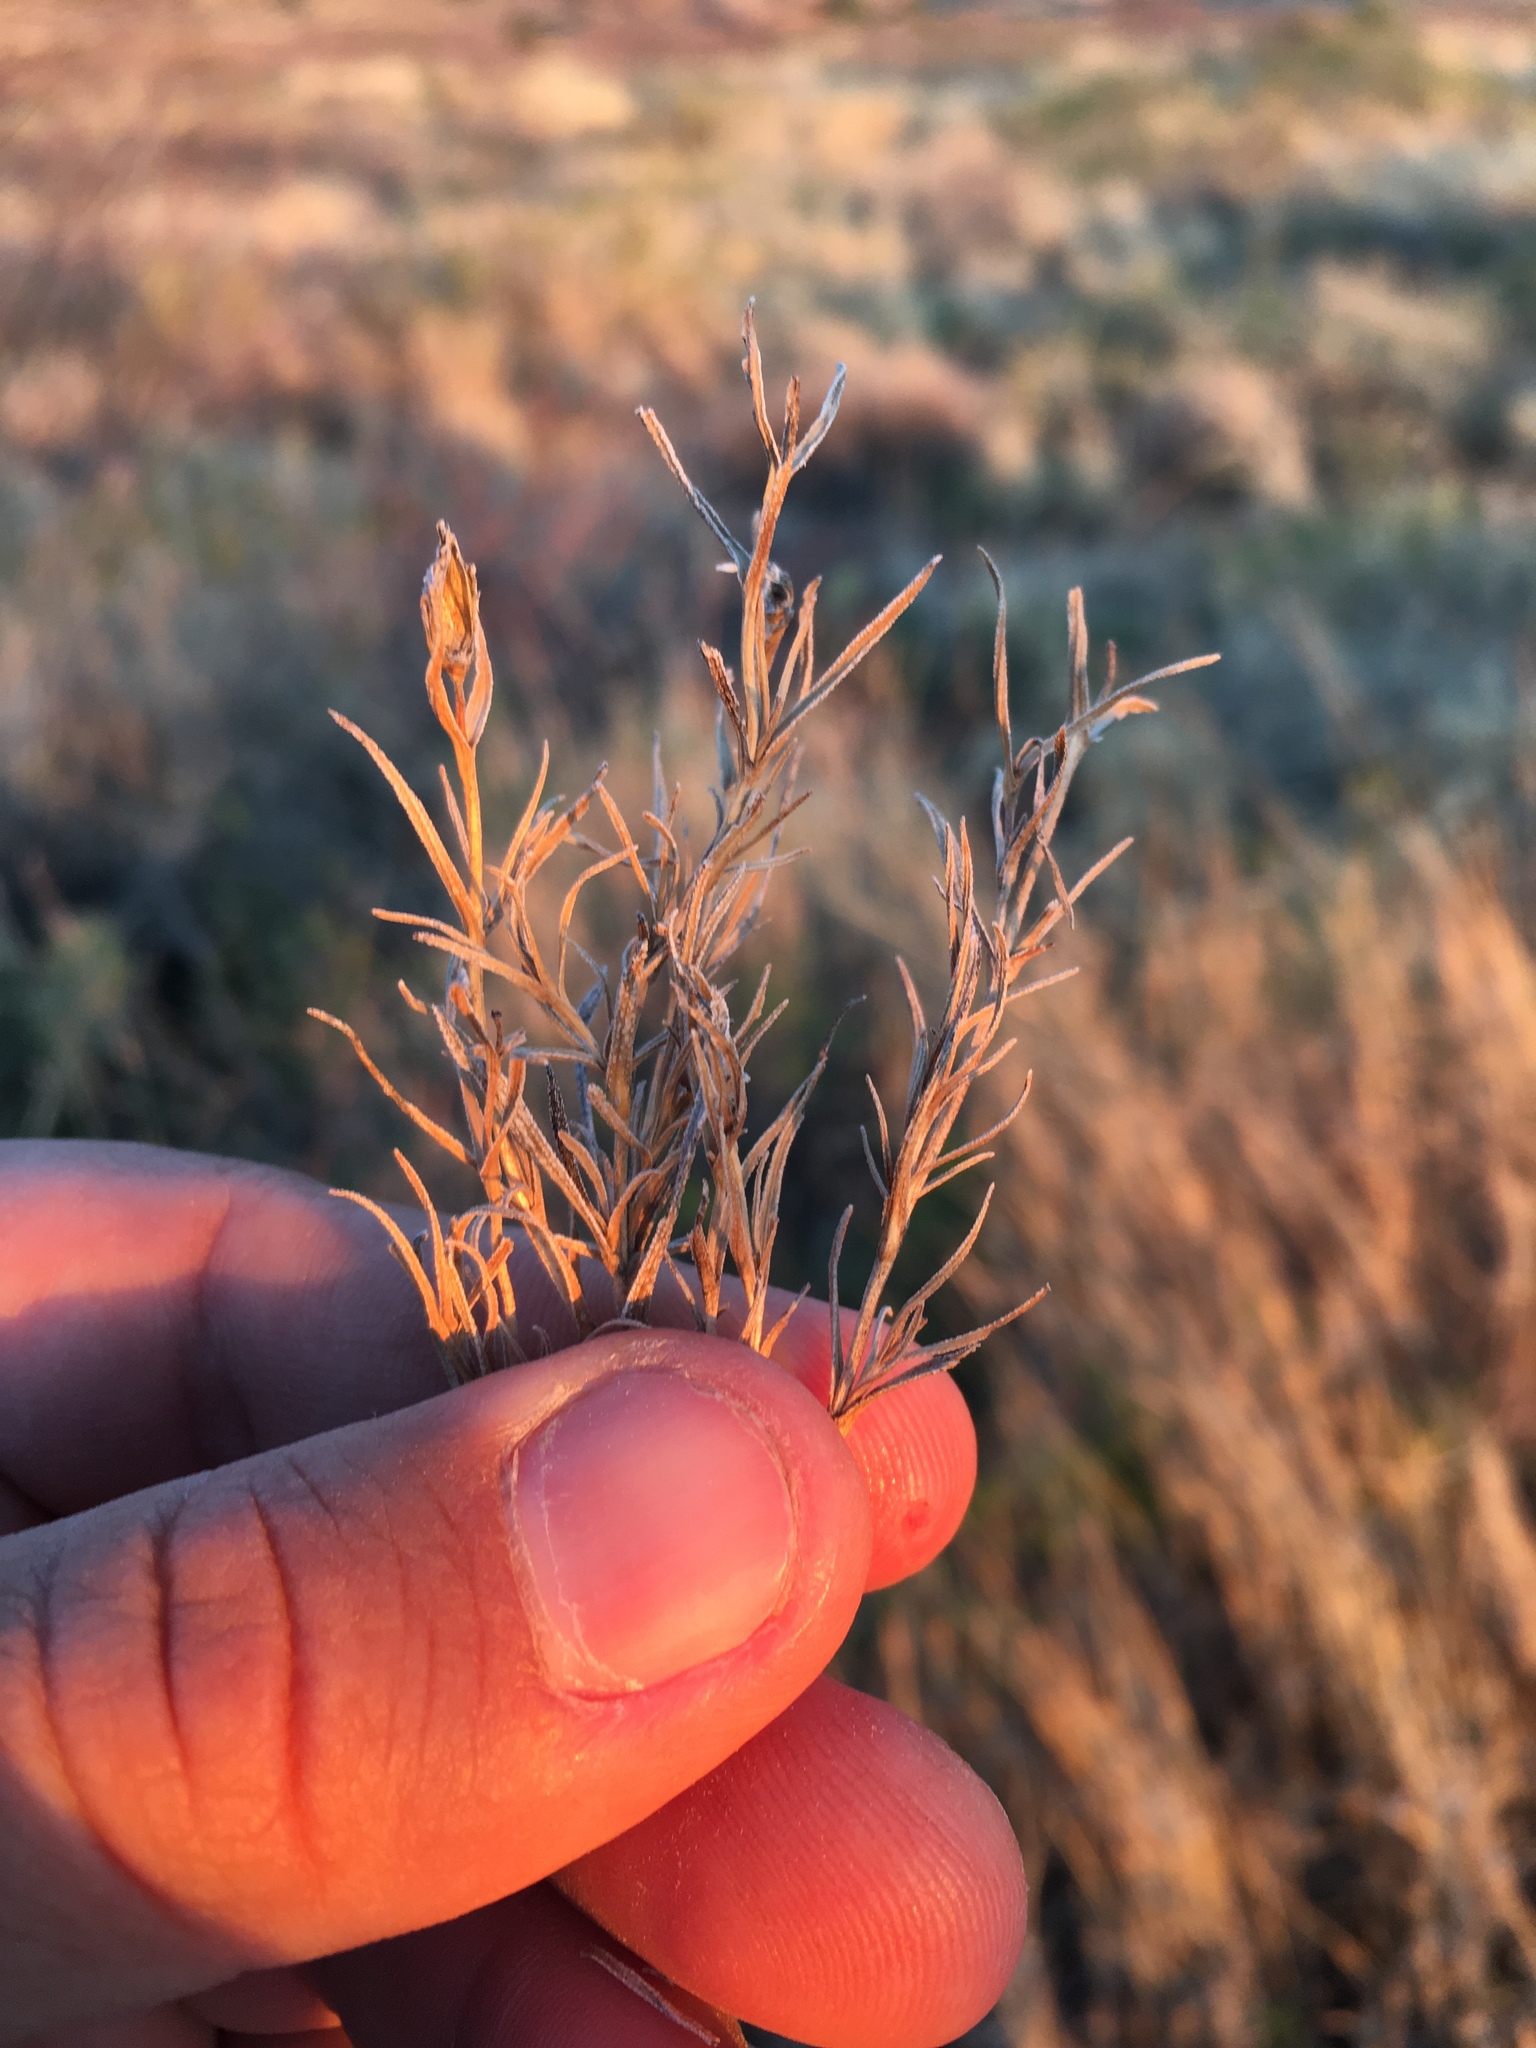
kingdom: Plantae
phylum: Tracheophyta
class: Magnoliopsida
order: Asterales
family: Asteraceae
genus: Zinnia
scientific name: Zinnia grandiflora
